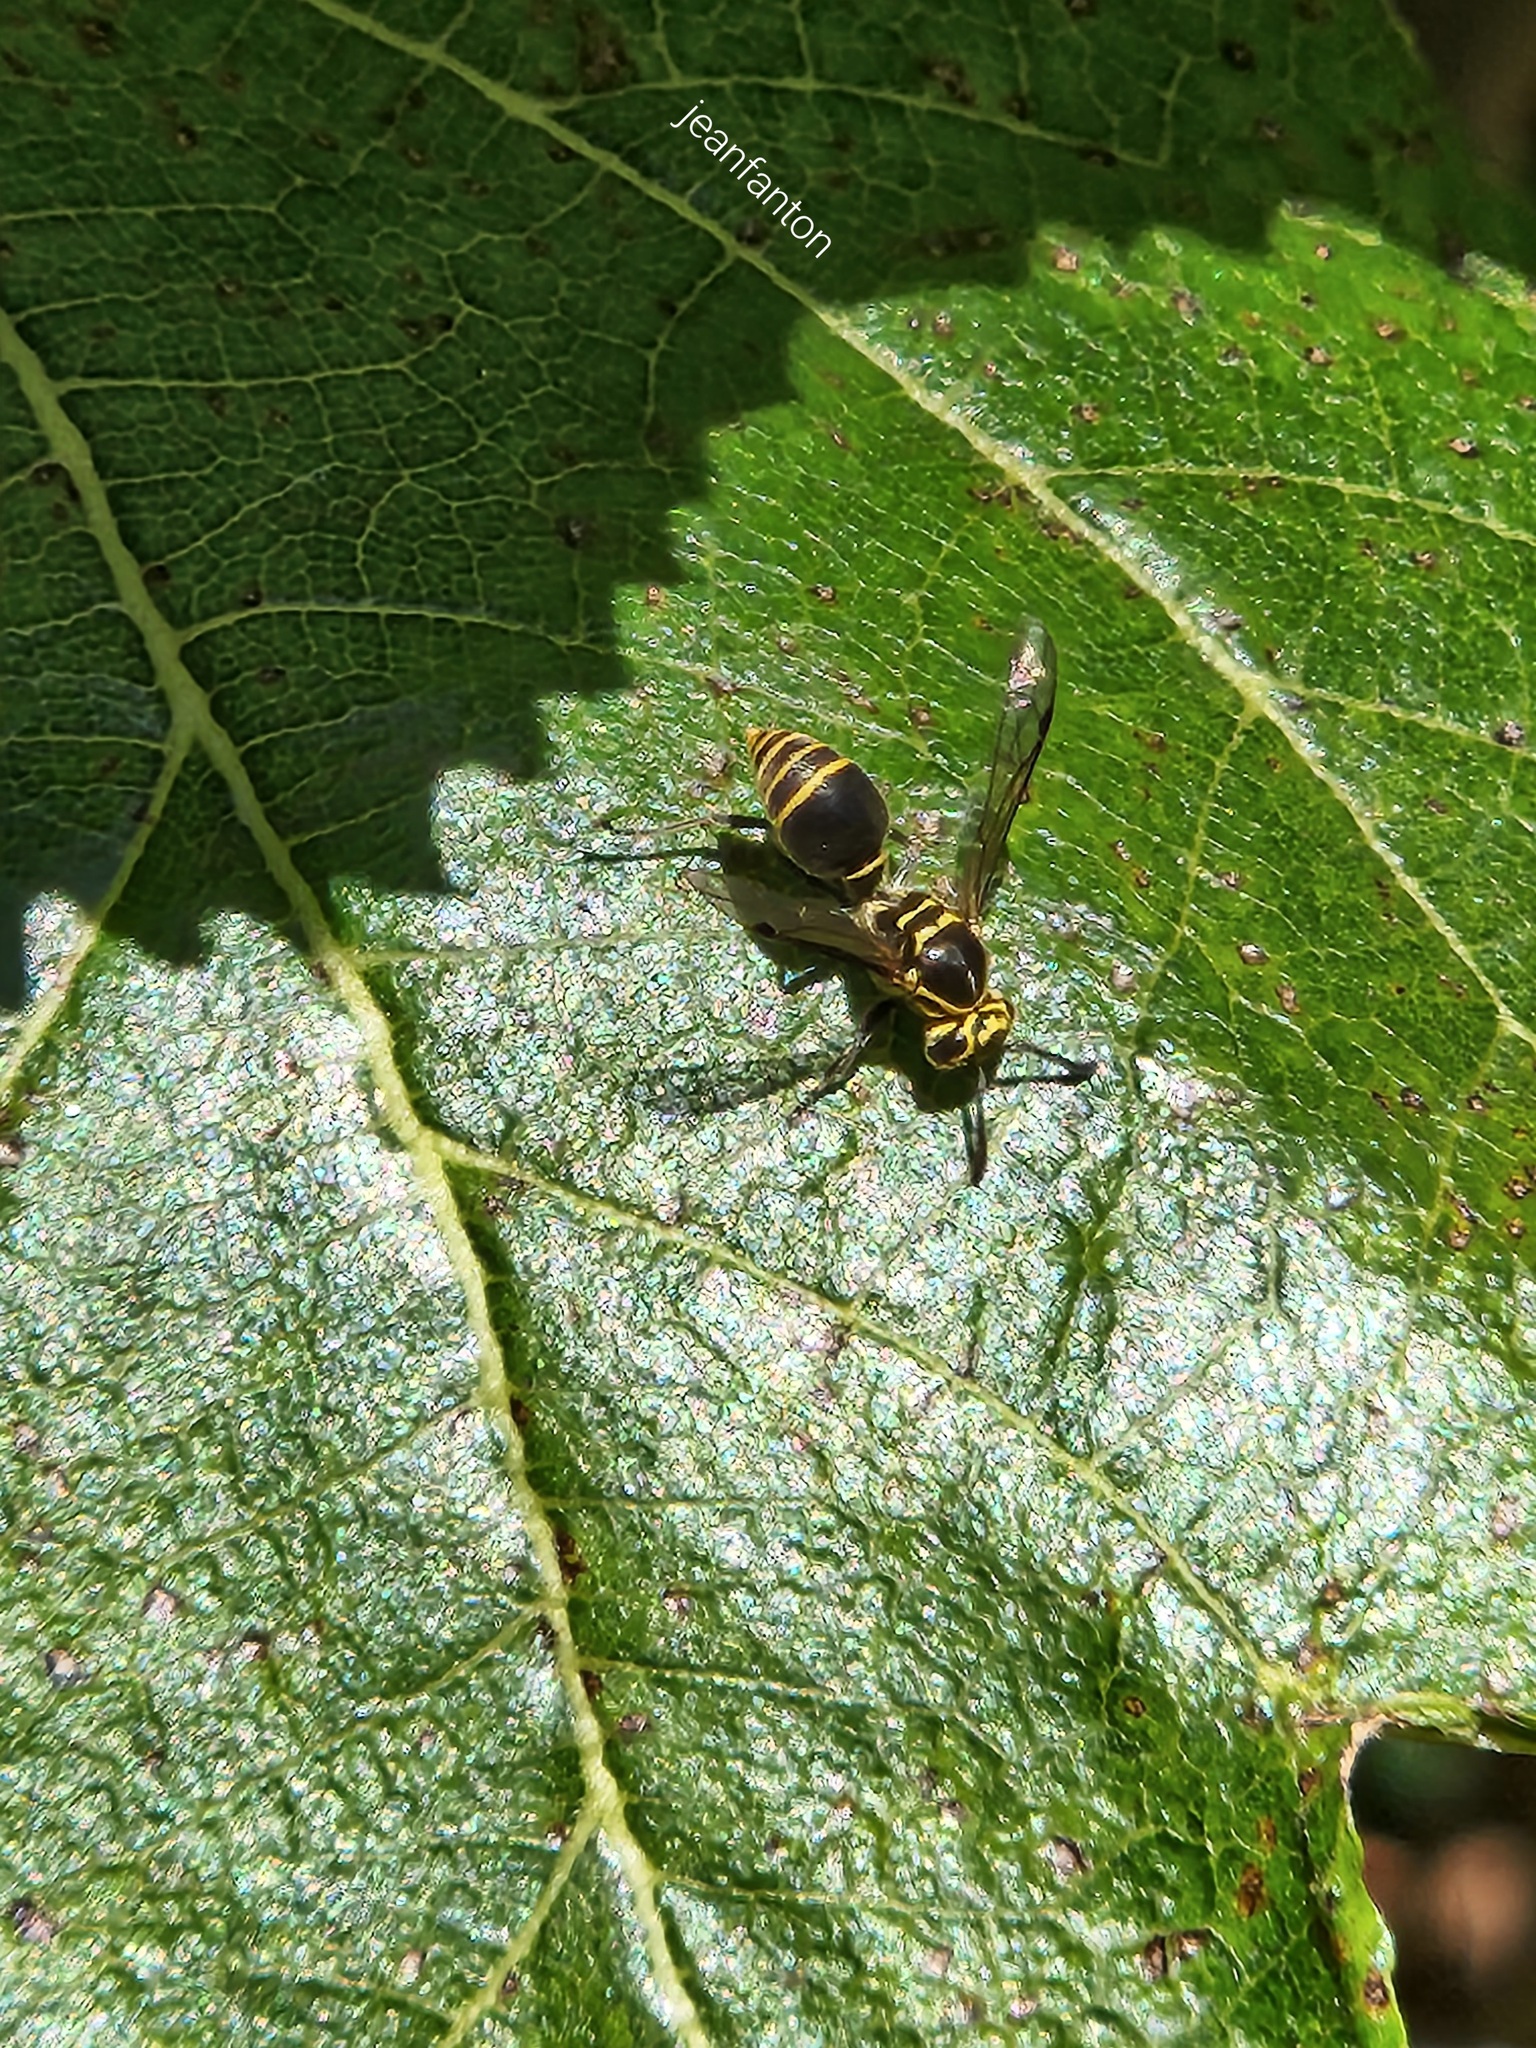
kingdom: Animalia
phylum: Arthropoda
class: Insecta
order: Hymenoptera
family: Vespidae
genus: Protonectarina
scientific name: Protonectarina sylveirae
